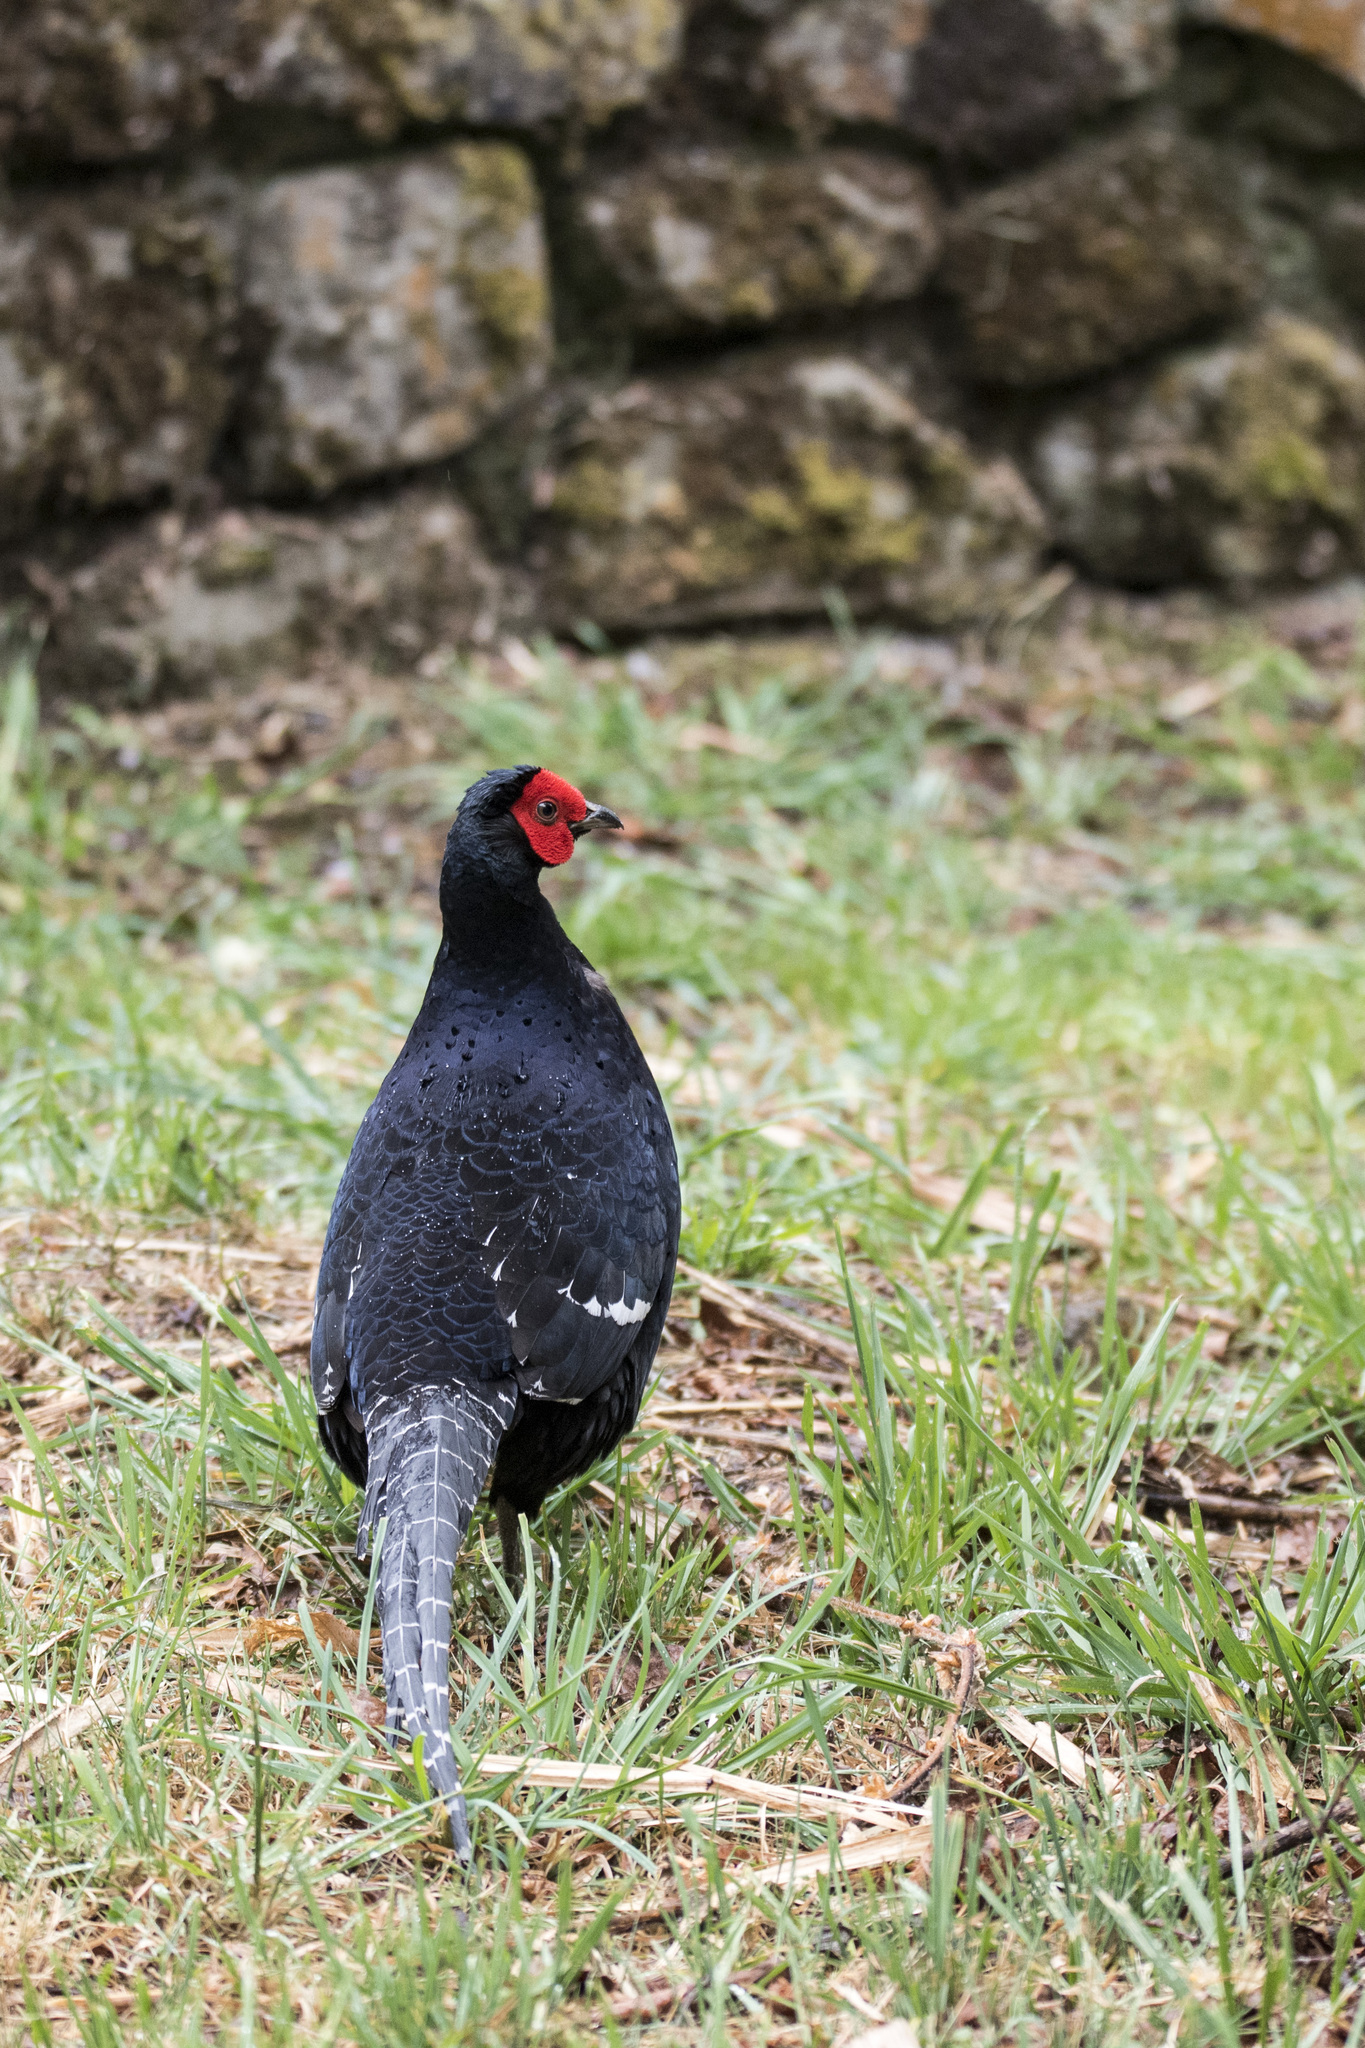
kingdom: Animalia
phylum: Chordata
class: Aves
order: Galliformes
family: Phasianidae
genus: Syrmaticus
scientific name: Syrmaticus mikado
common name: Mikado pheasant
